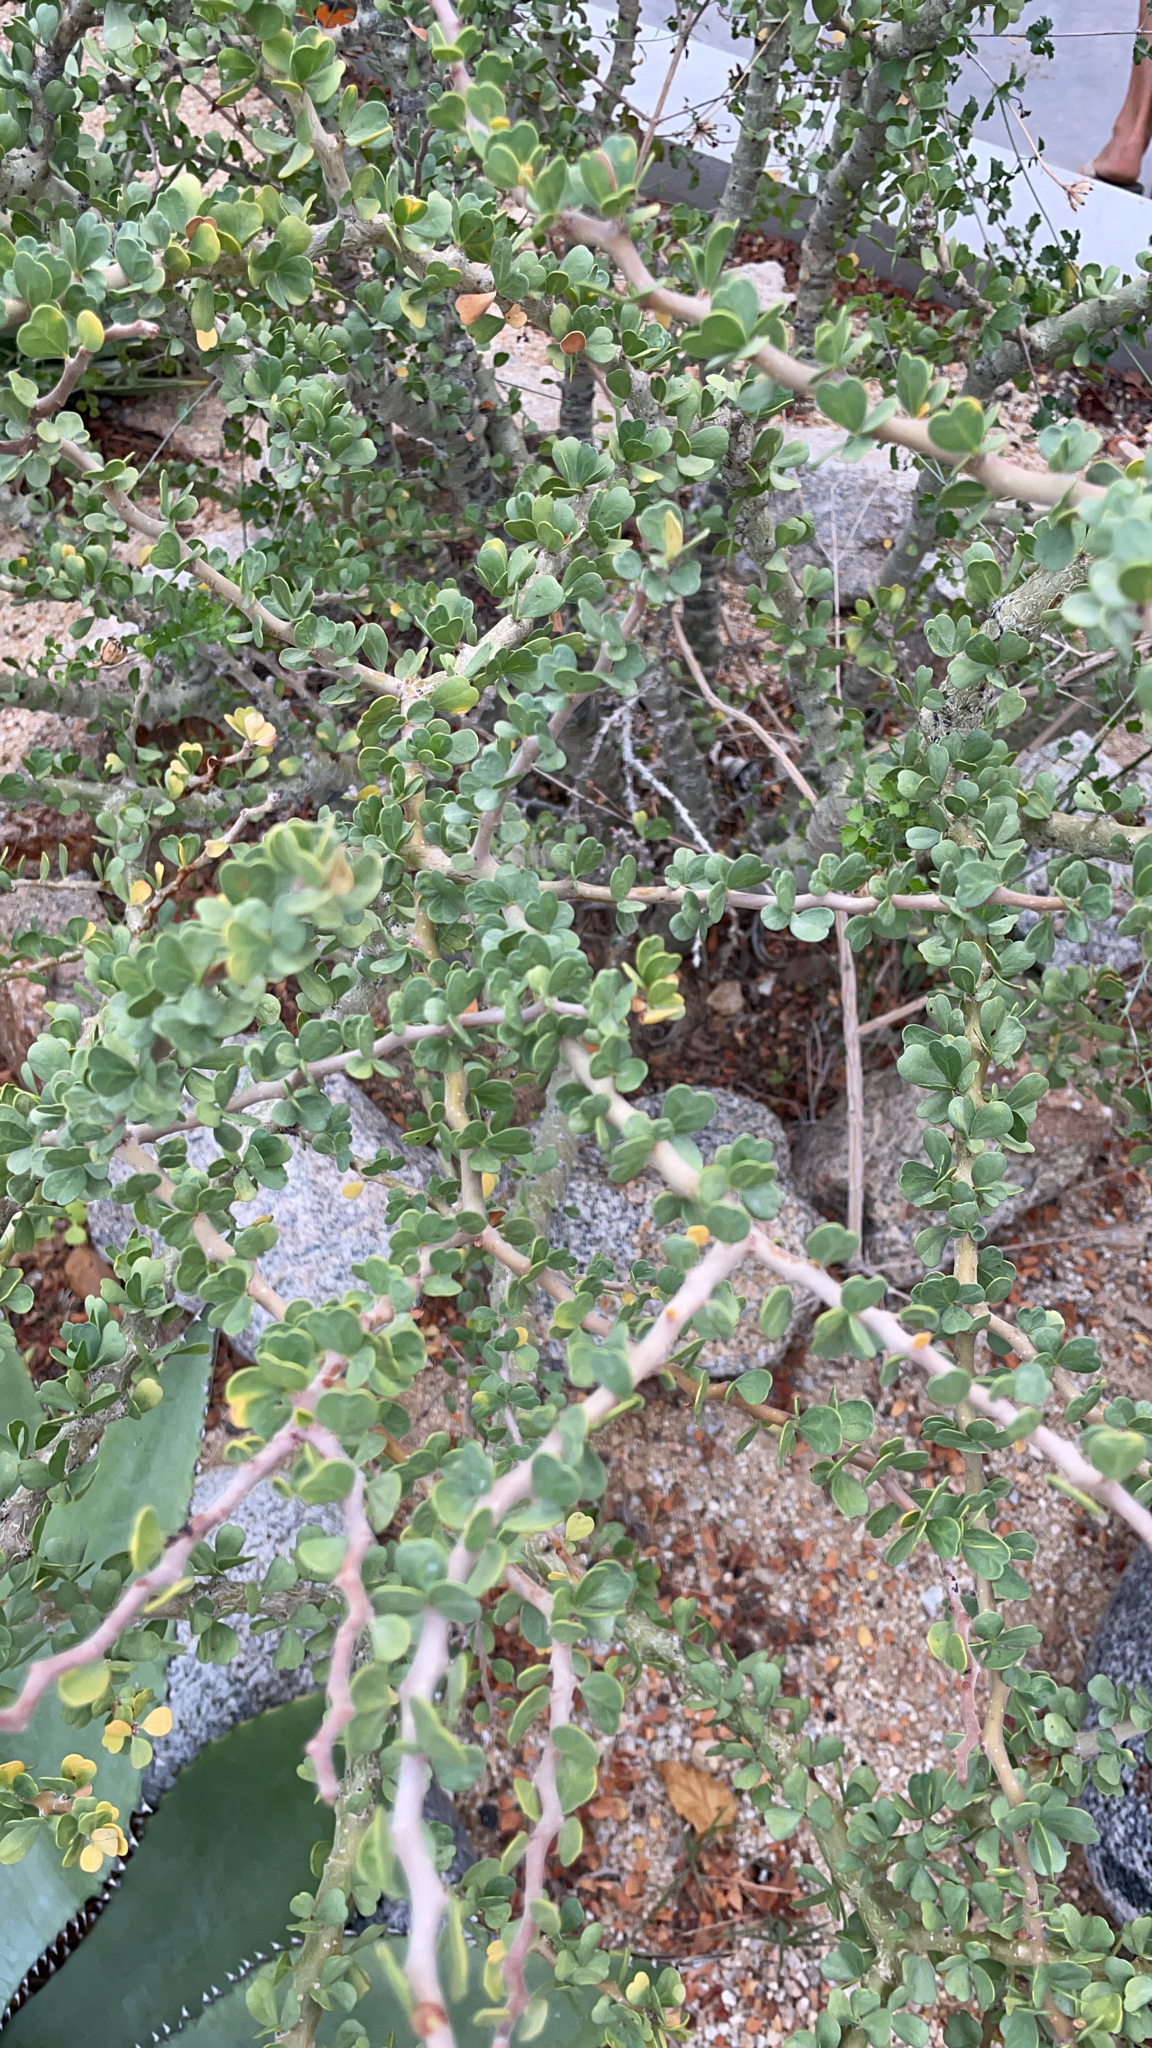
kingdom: Plantae
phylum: Tracheophyta
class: Magnoliopsida
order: Malpighiales
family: Euphorbiaceae
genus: Jatropha
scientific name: Jatropha cuneata
